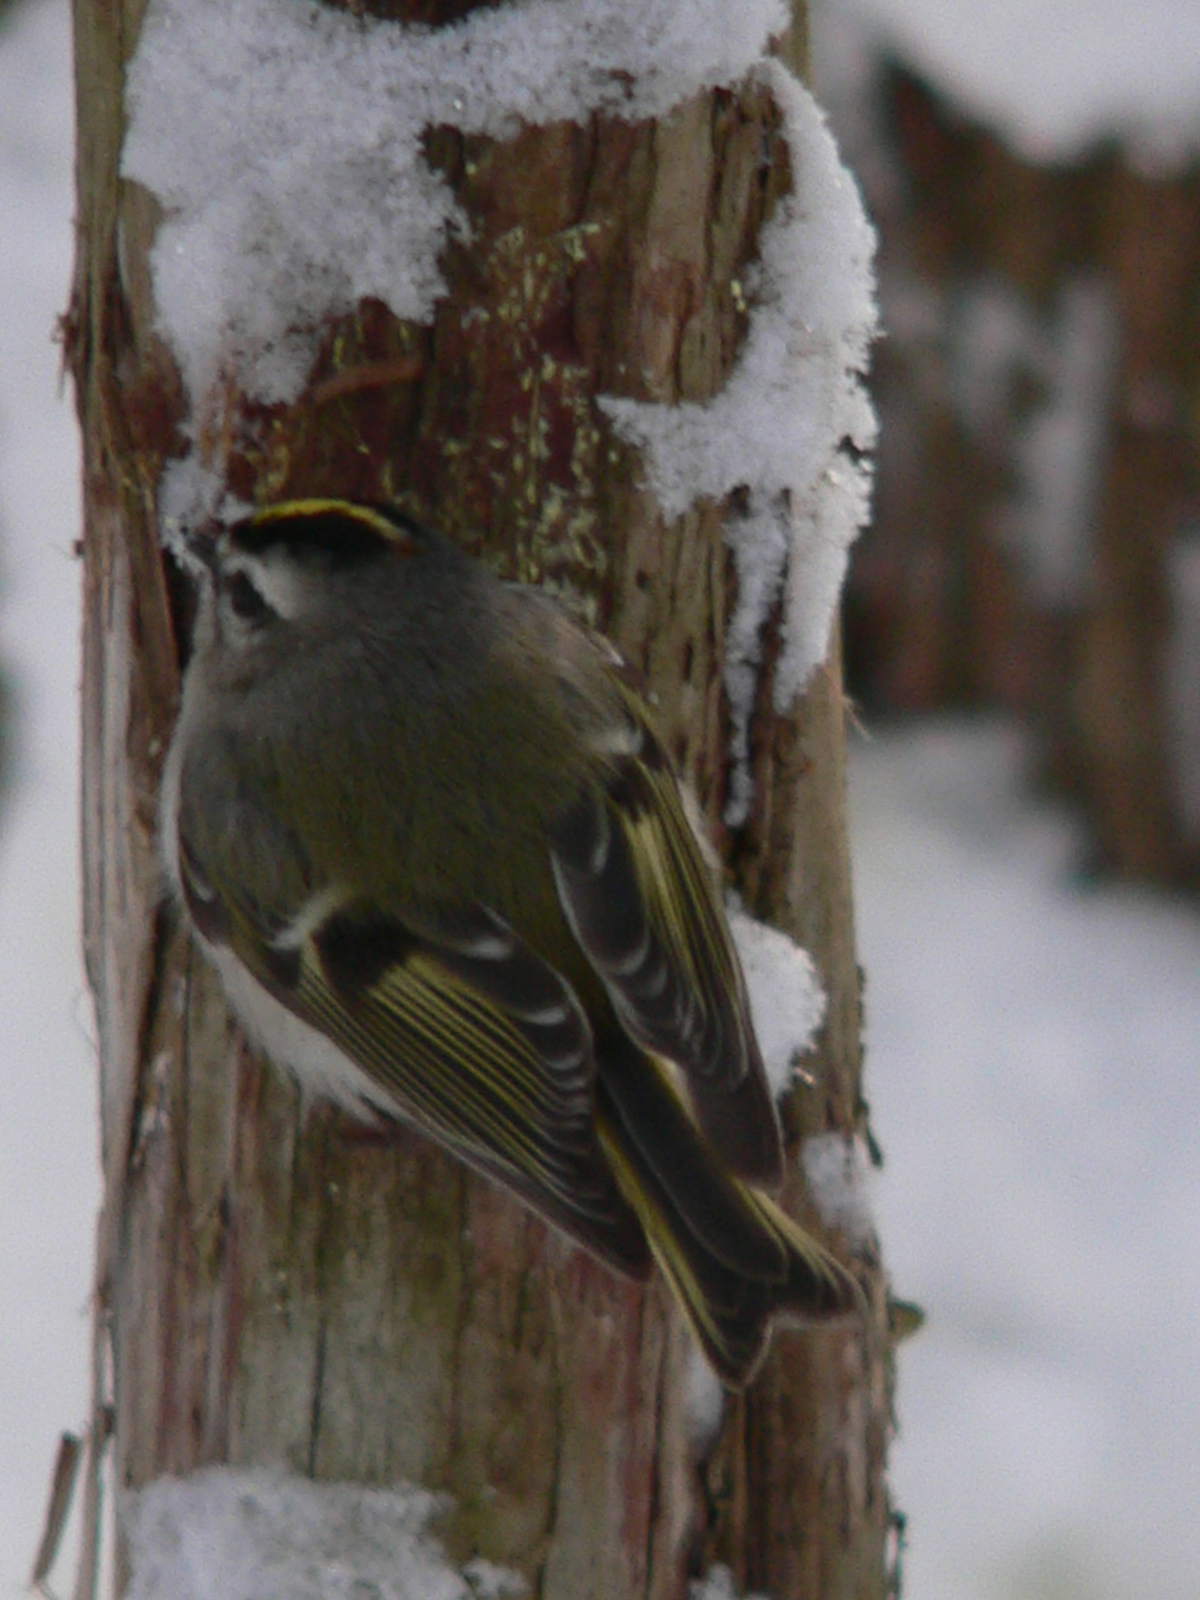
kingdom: Animalia
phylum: Chordata
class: Aves
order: Passeriformes
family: Regulidae
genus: Regulus
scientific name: Regulus satrapa
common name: Golden-crowned kinglet
